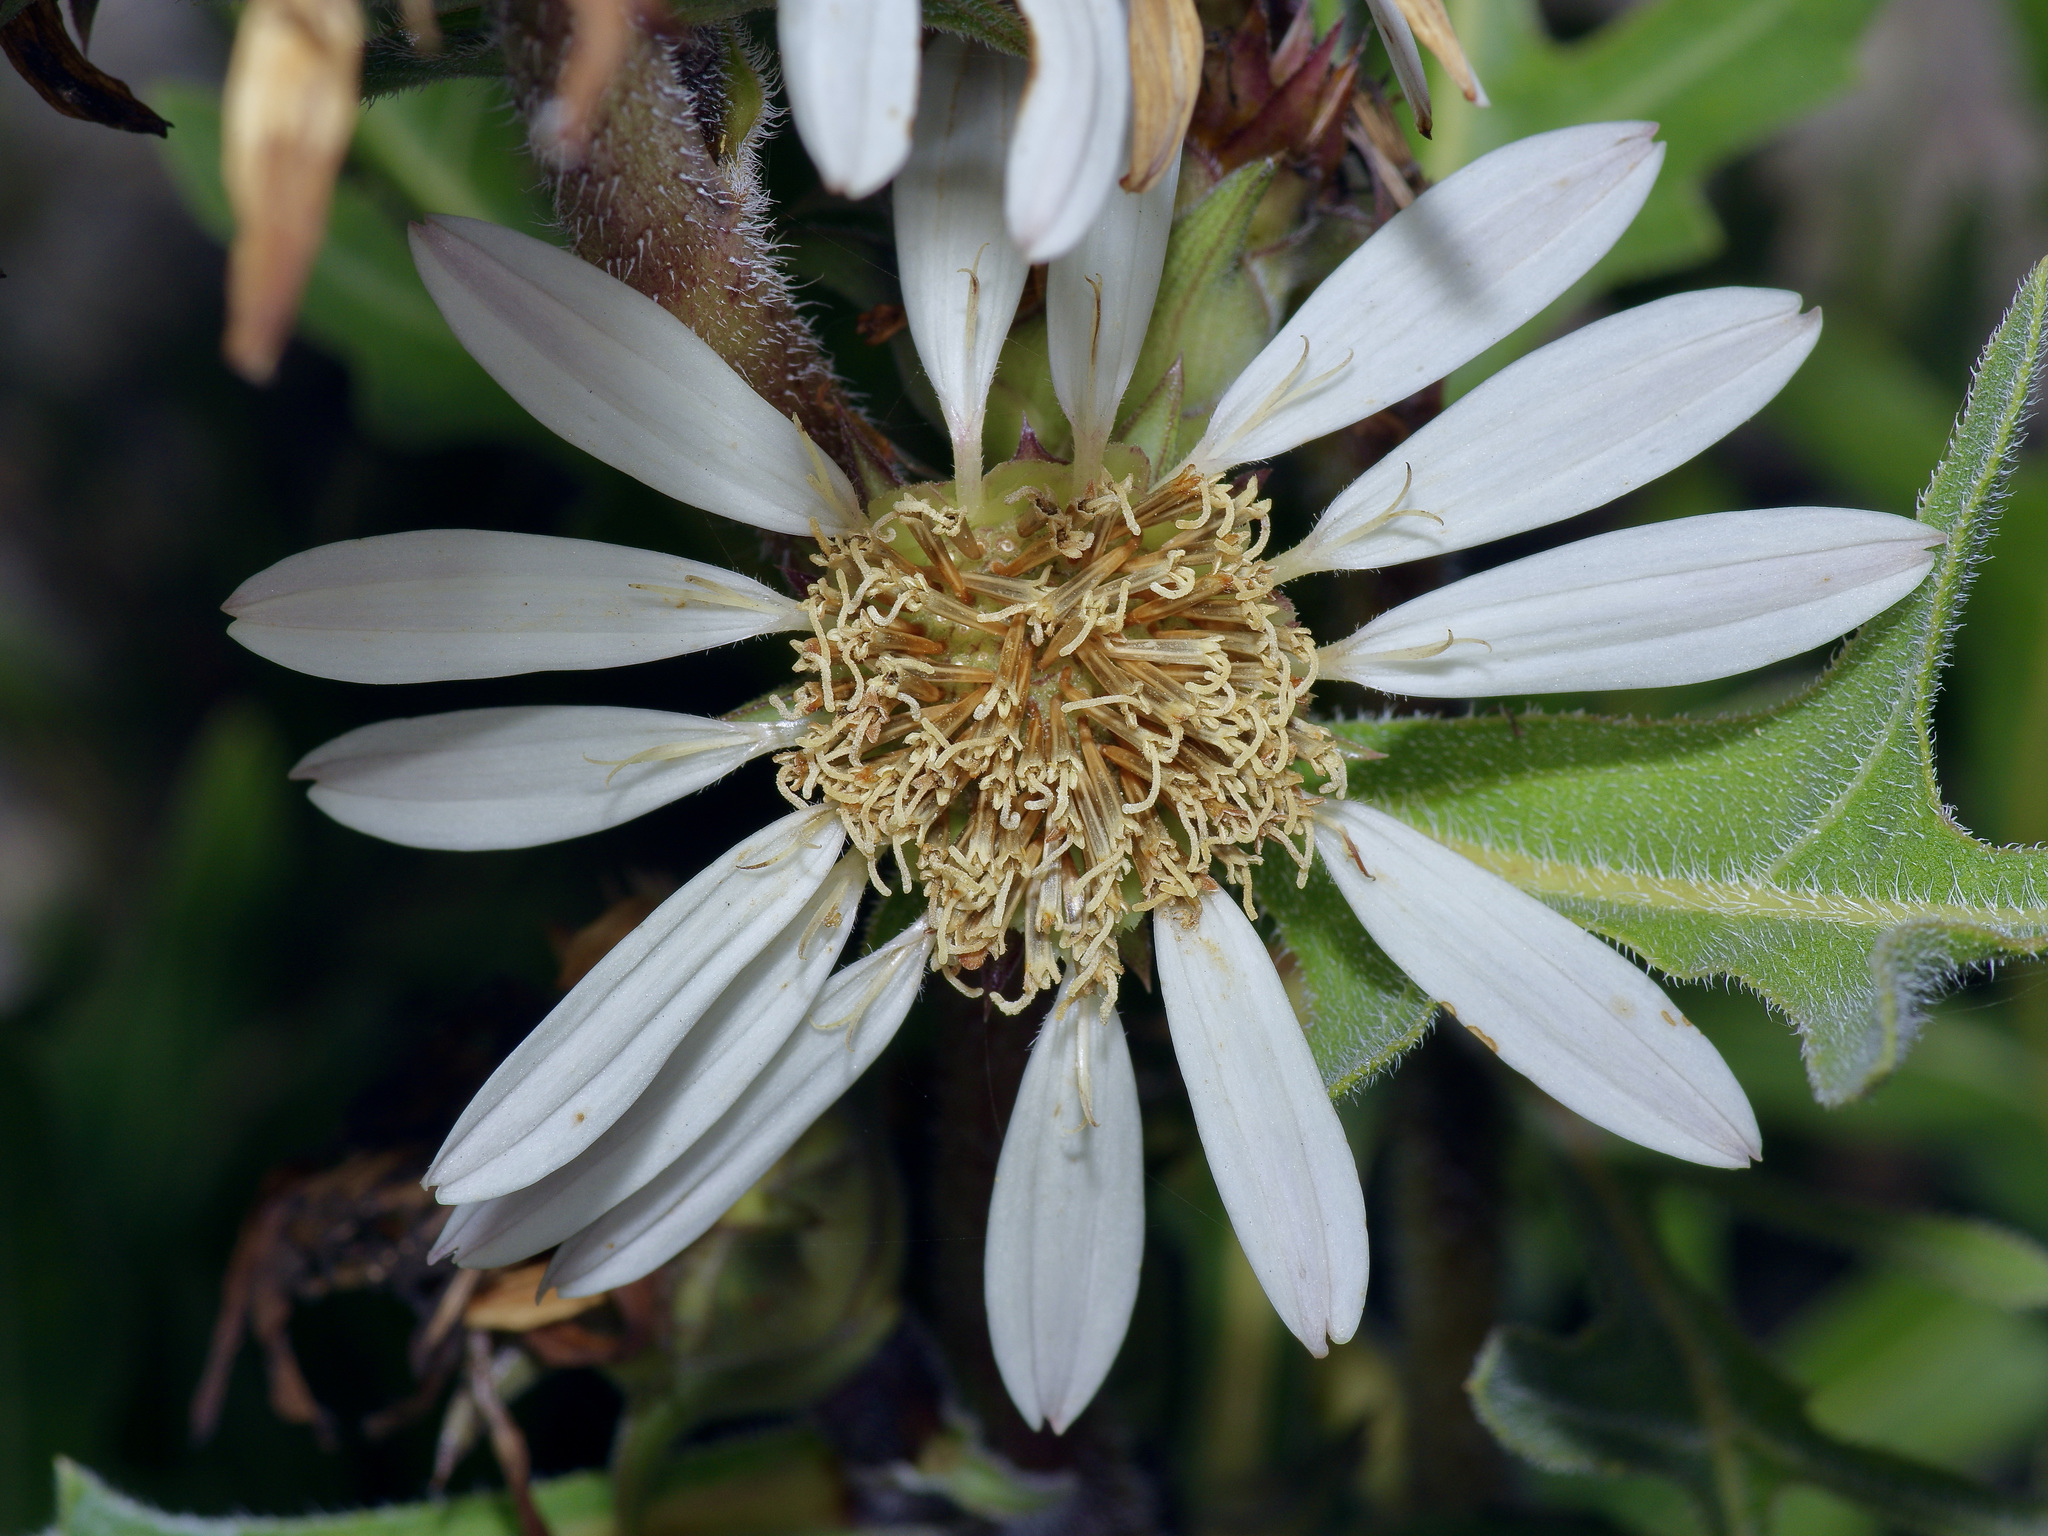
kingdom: Plantae
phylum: Tracheophyta
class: Magnoliopsida
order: Asterales
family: Asteraceae
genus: Silphium
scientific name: Silphium albiflorum
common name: White rosinweed
